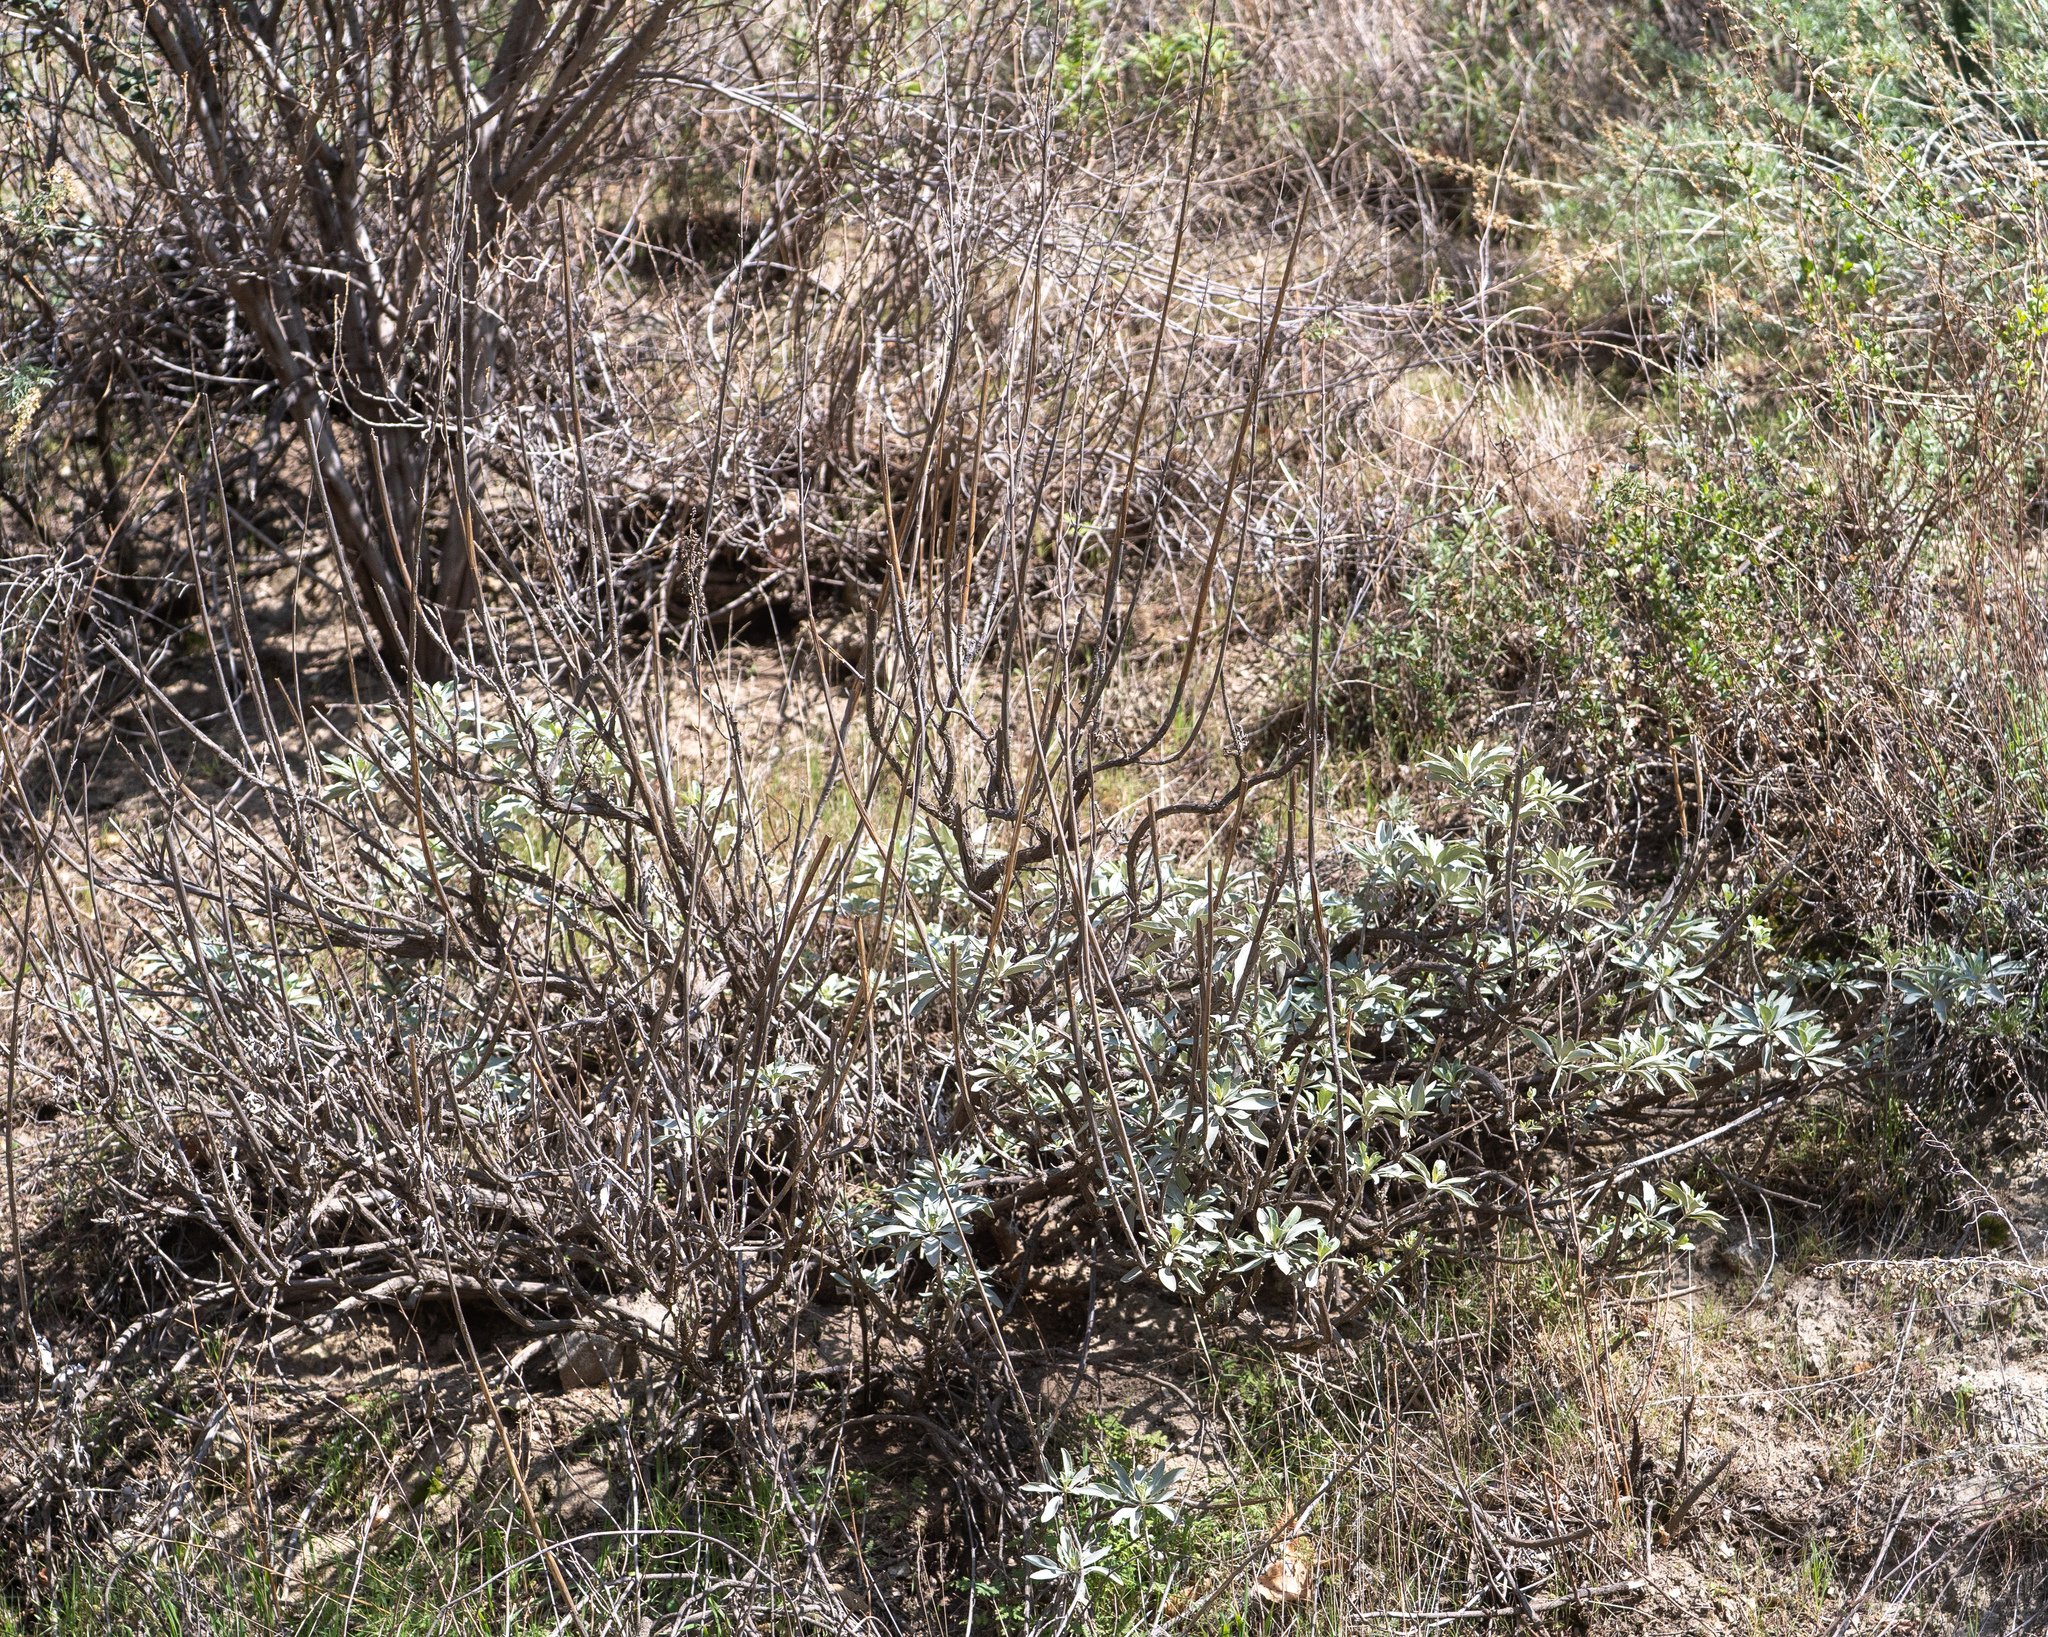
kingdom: Plantae
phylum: Tracheophyta
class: Magnoliopsida
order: Lamiales
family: Lamiaceae
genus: Salvia
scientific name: Salvia apiana
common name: White sage
